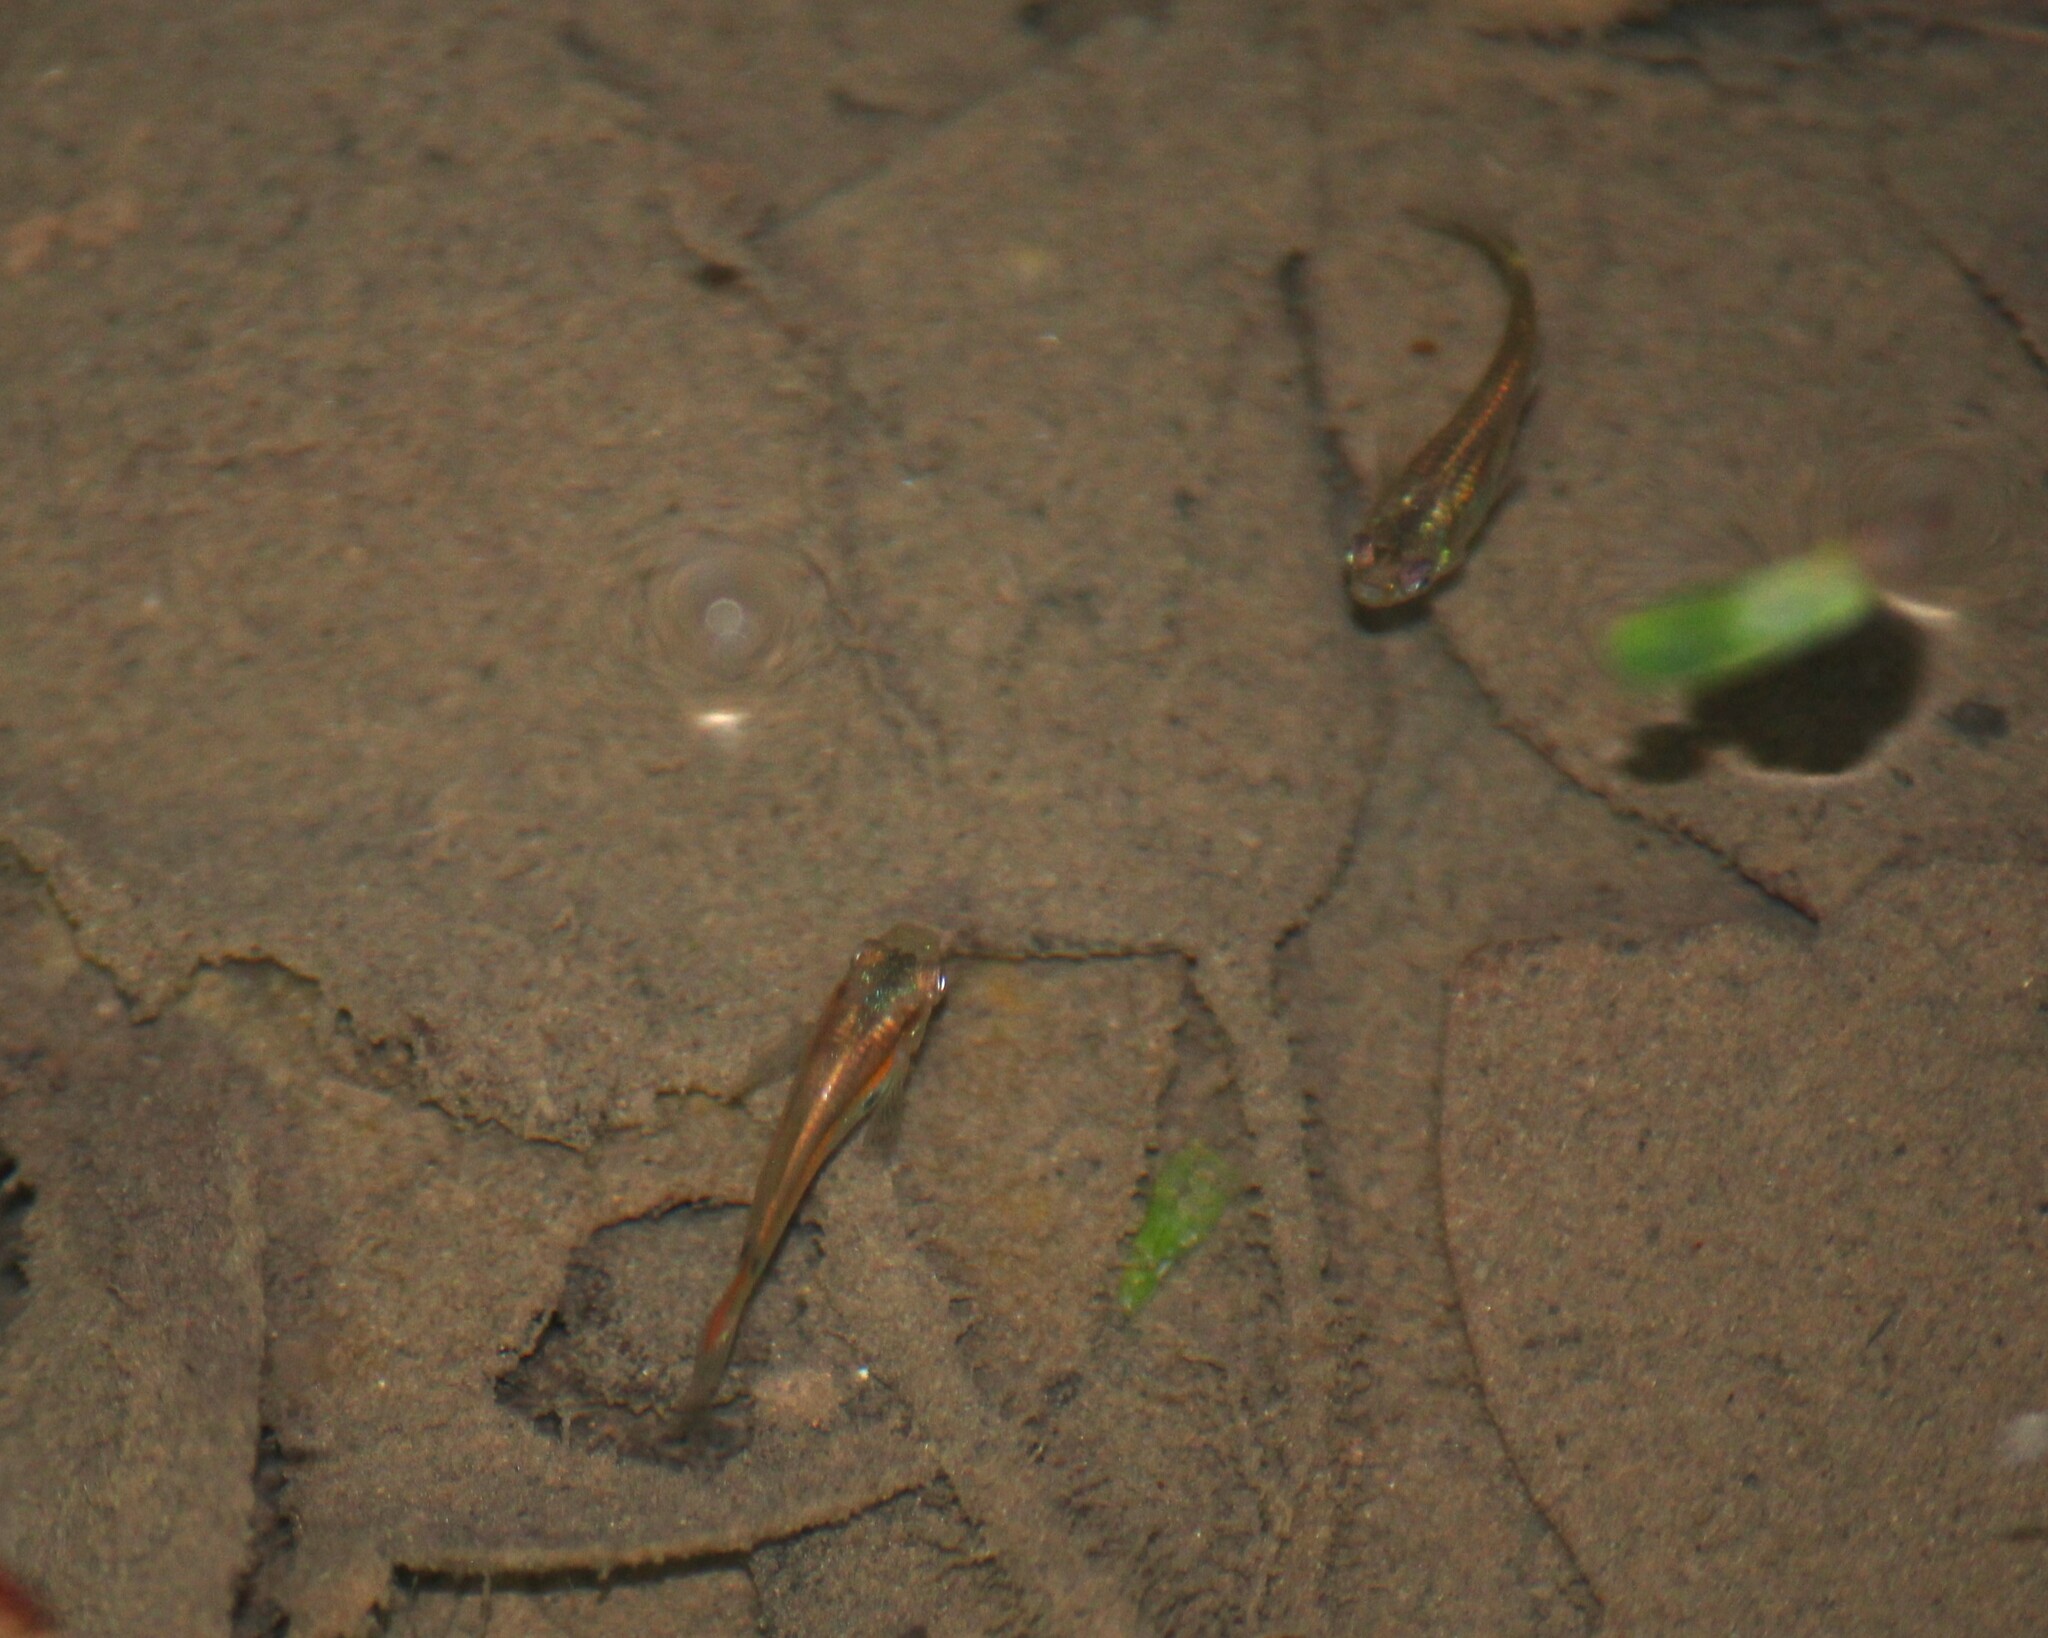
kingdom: Animalia
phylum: Chordata
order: Cyprinodontiformes
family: Poeciliidae
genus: Poecilia
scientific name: Poecilia reticulata
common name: Guppy
